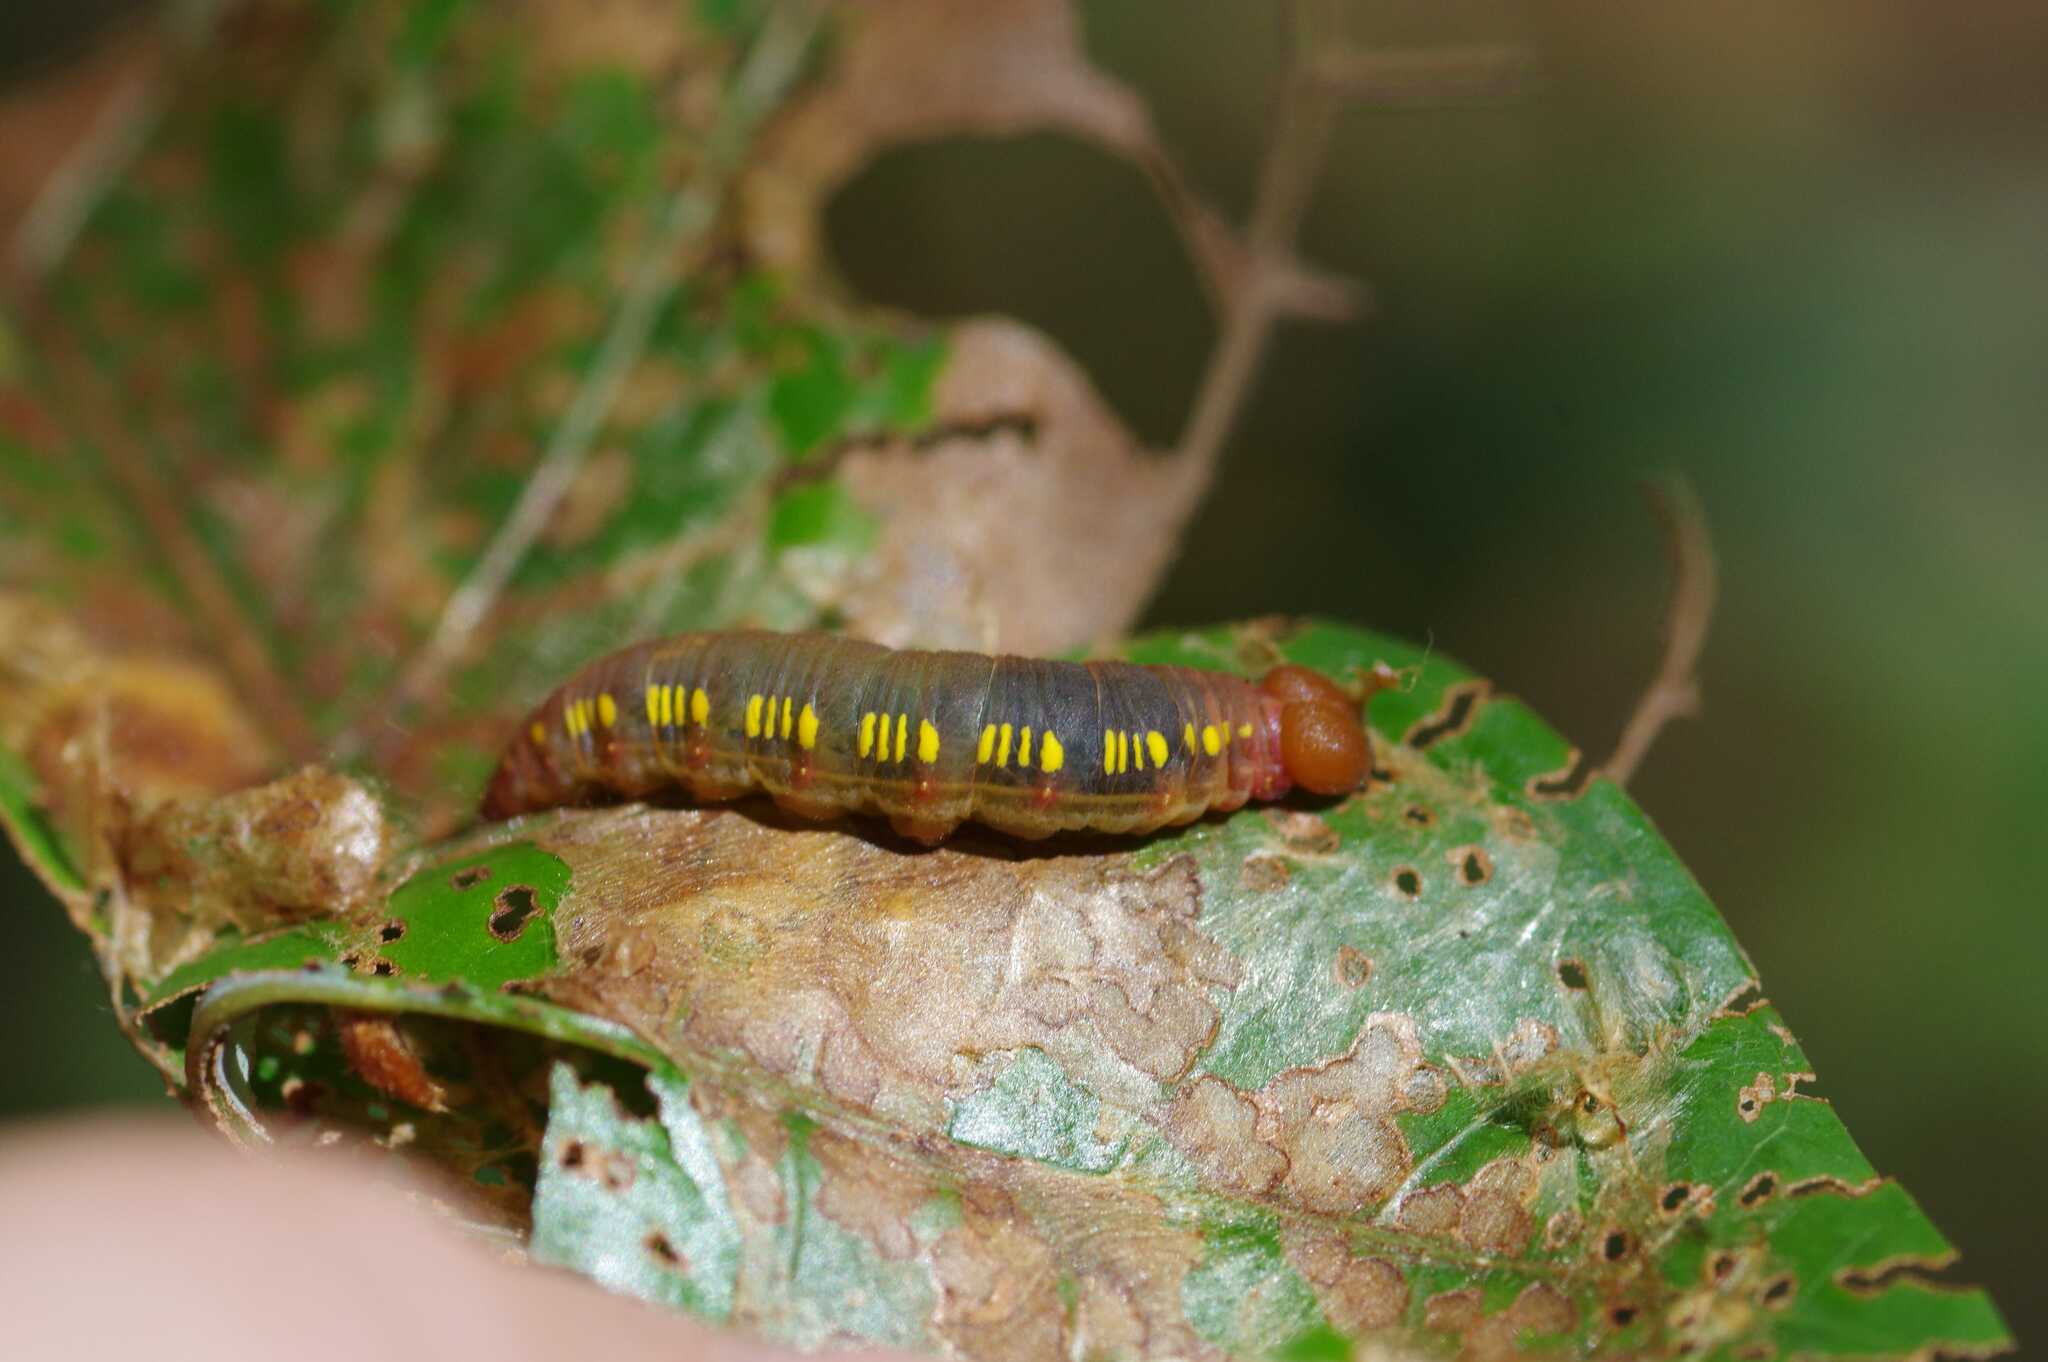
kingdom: Animalia
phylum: Arthropoda
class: Insecta
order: Lepidoptera
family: Hesperiidae
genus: Achlyodes
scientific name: Achlyodes pallida
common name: Pale sicklewing
